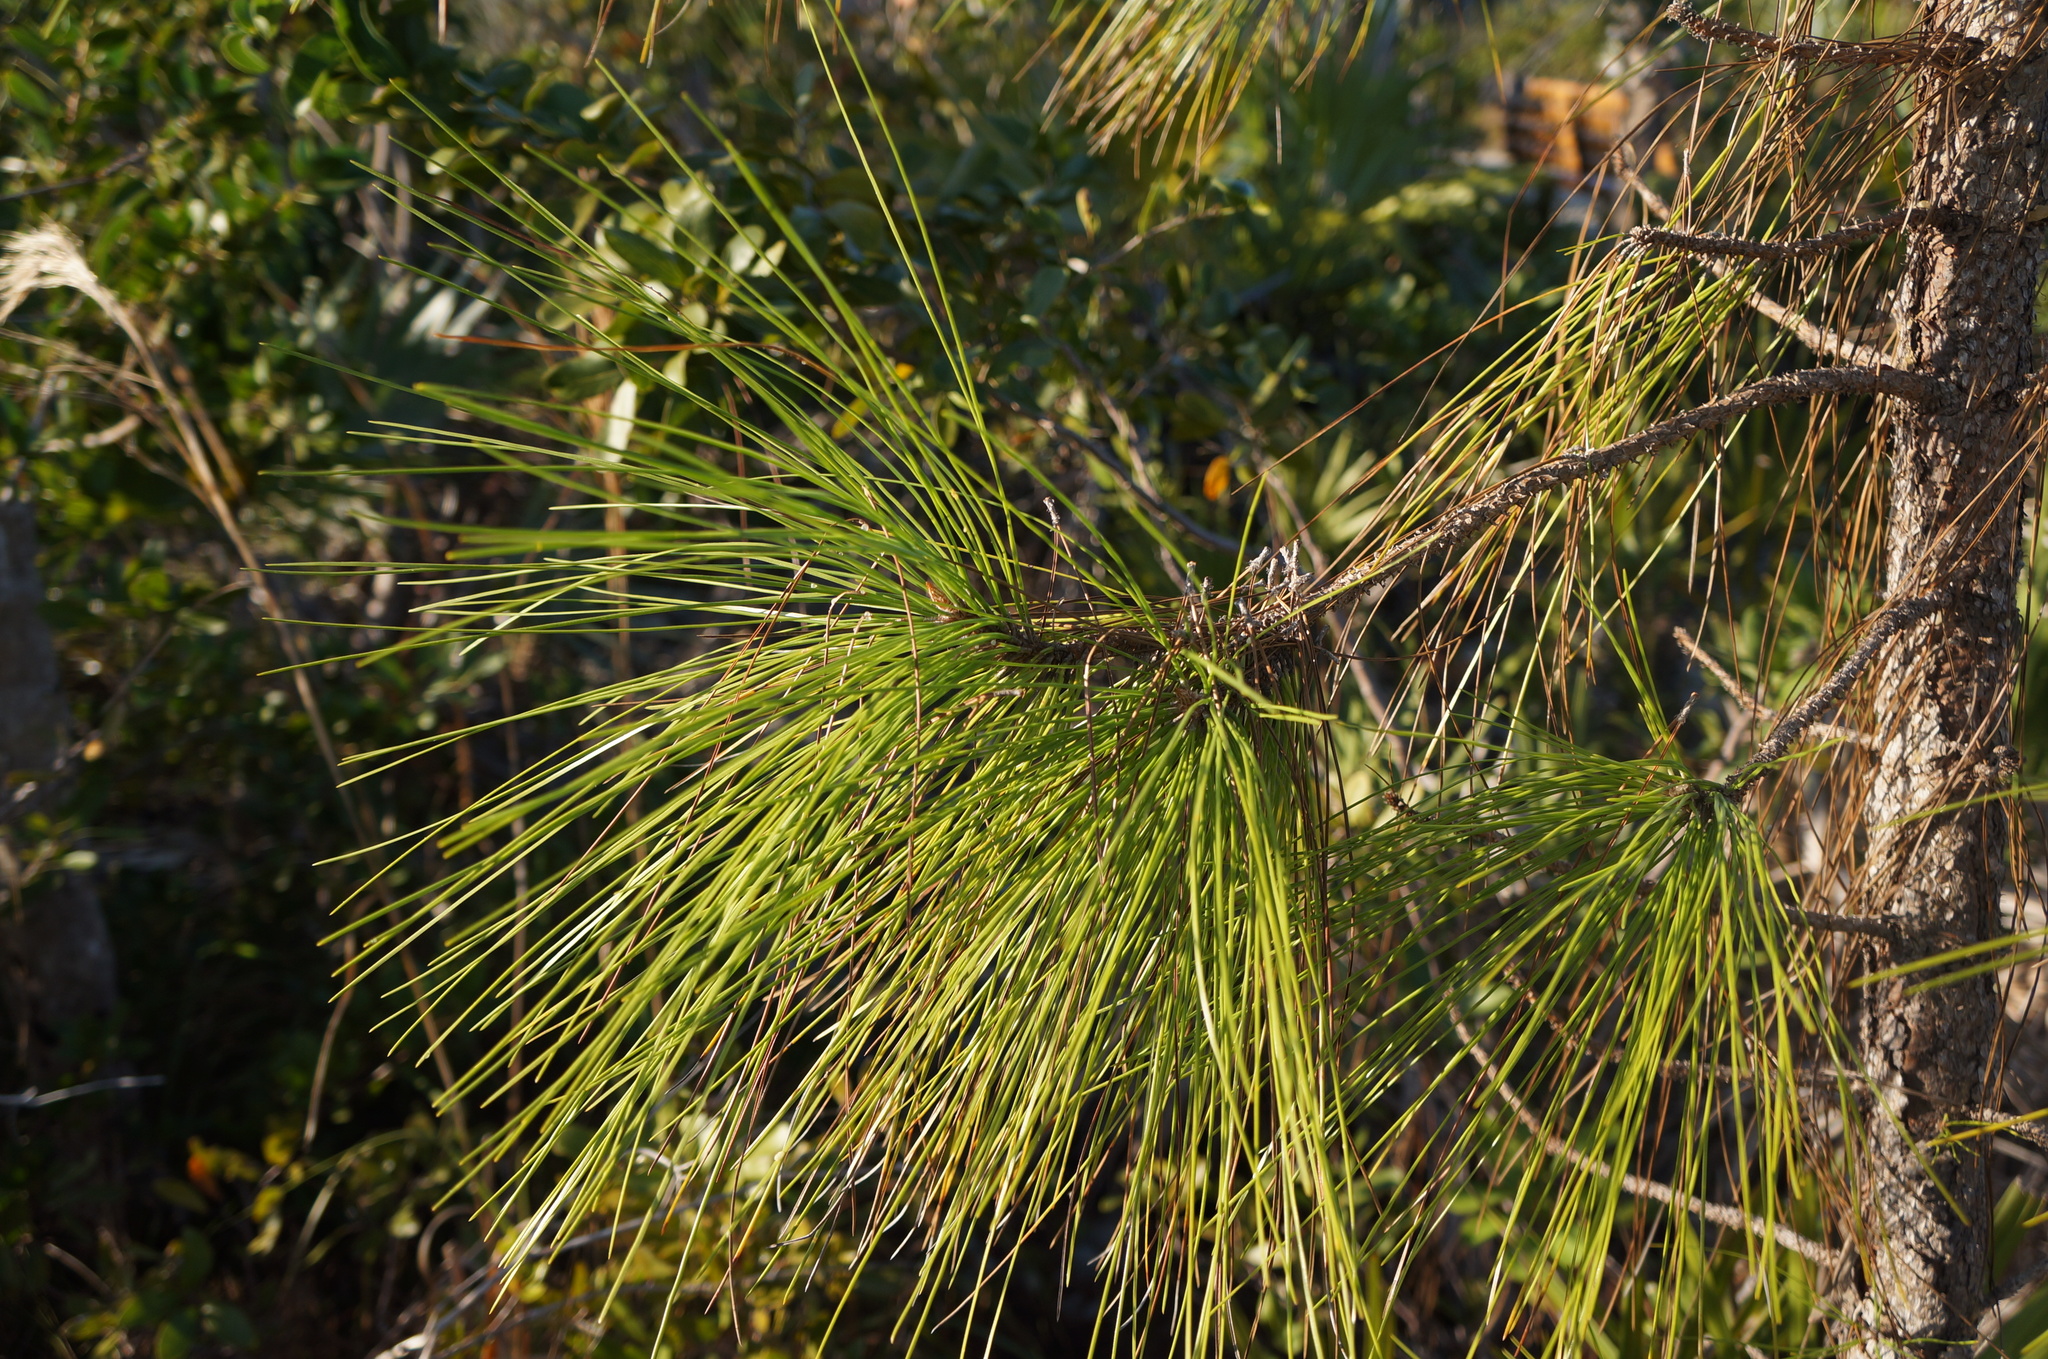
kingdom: Plantae
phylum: Tracheophyta
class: Pinopsida
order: Pinales
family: Pinaceae
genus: Pinus
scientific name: Pinus elliottii
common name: Slash pine
